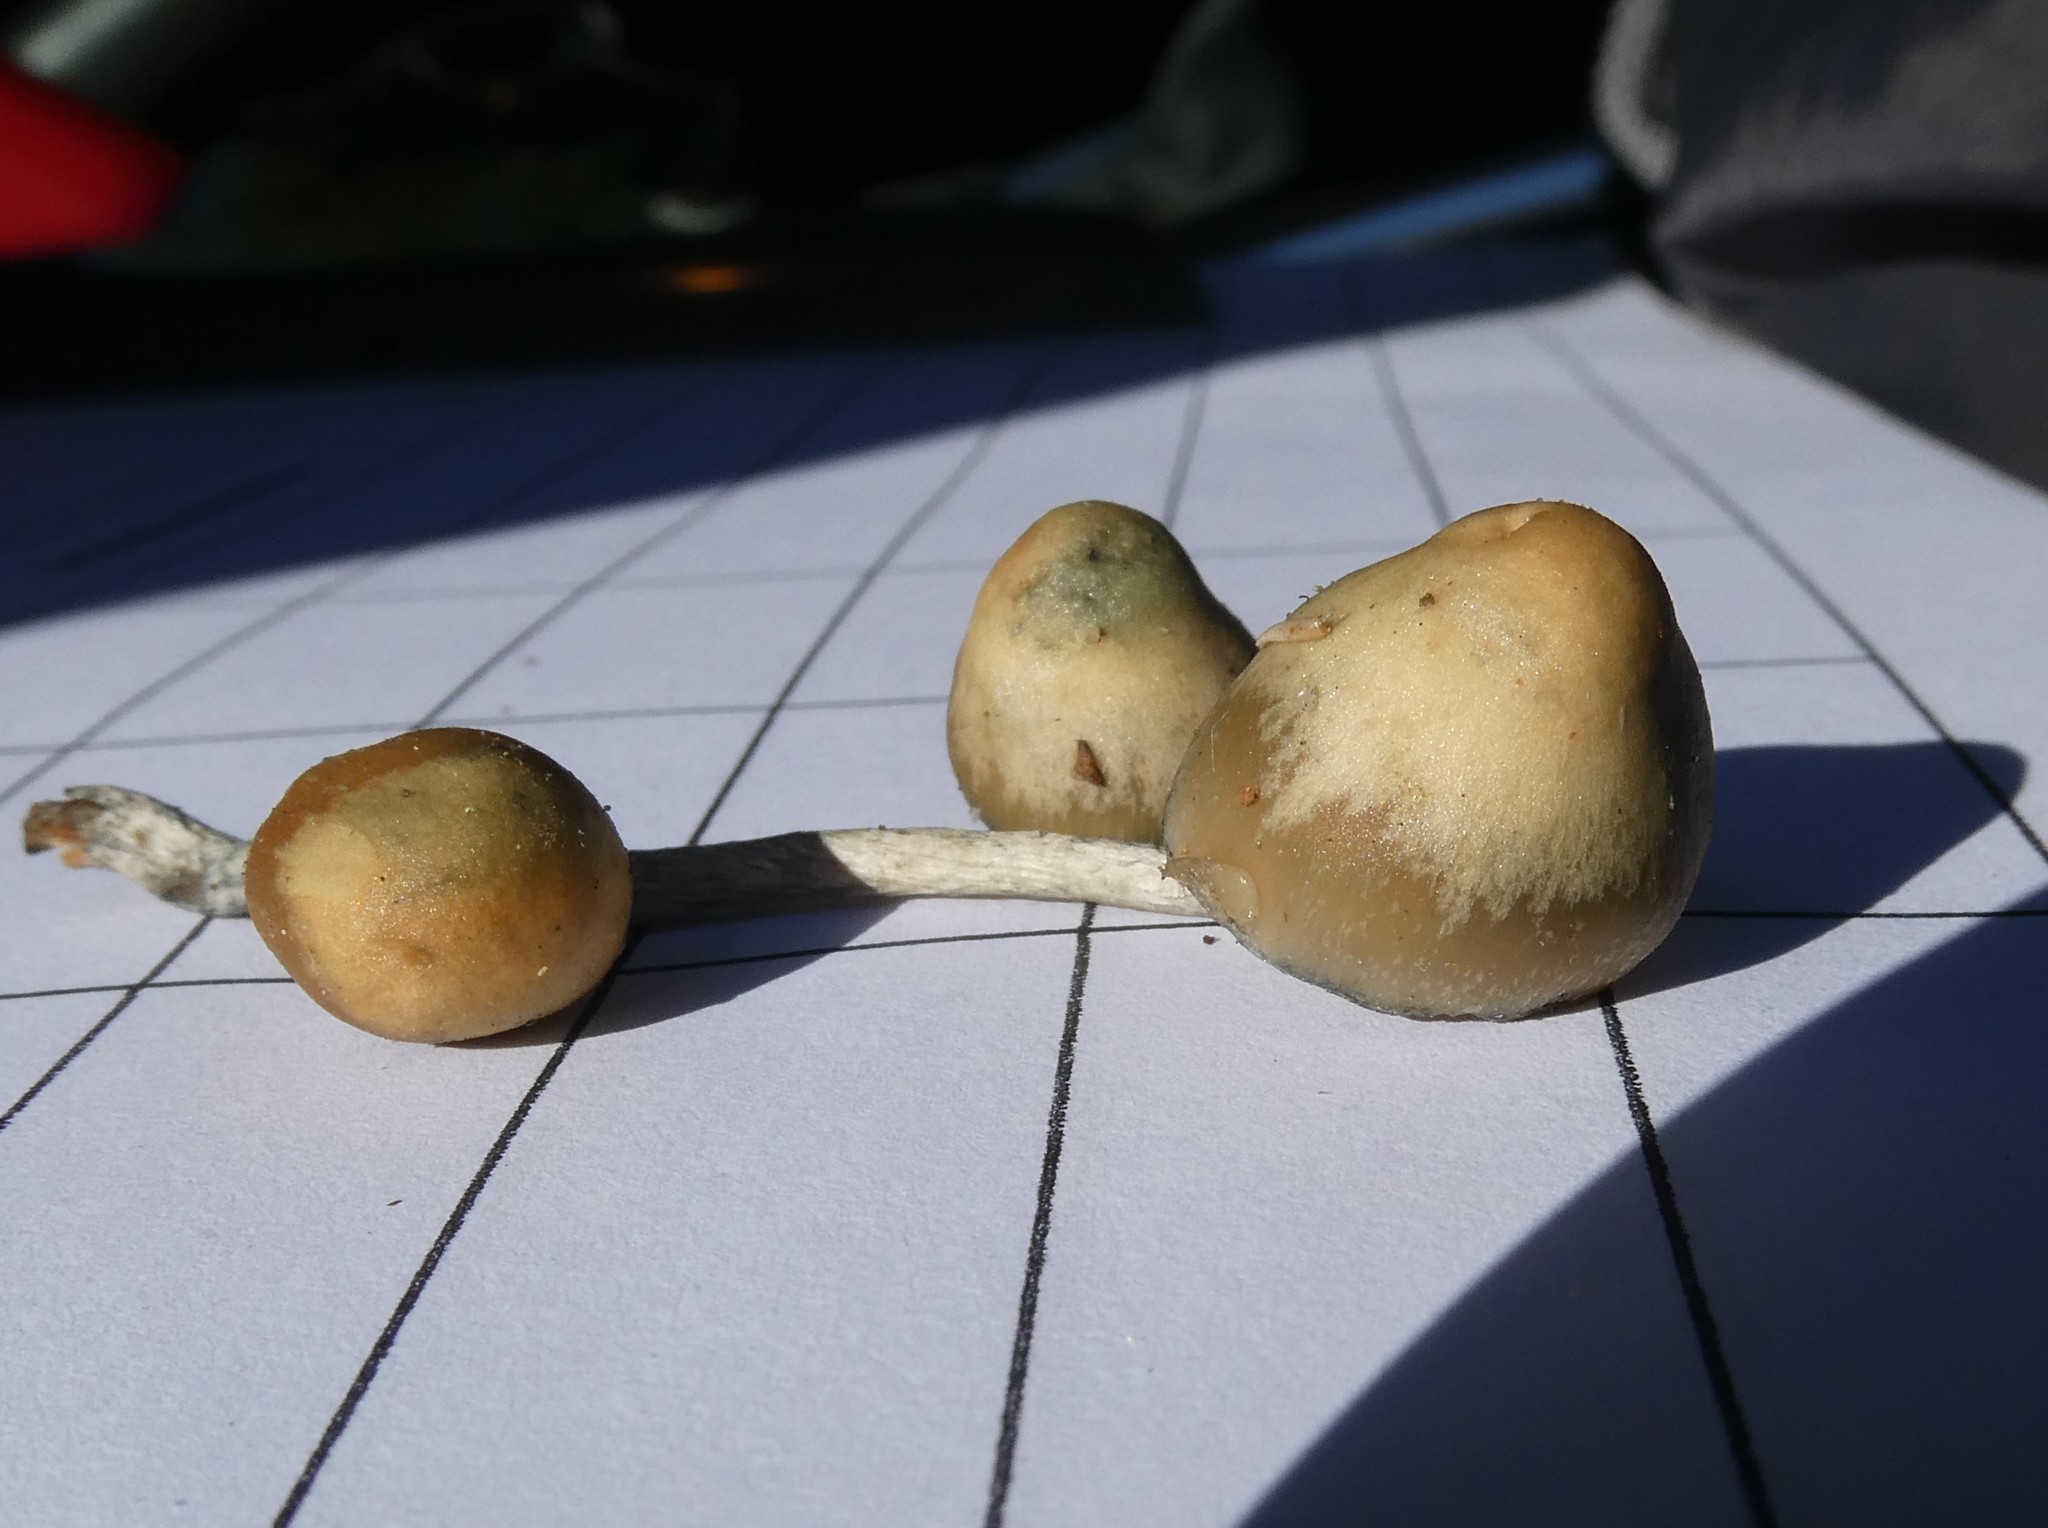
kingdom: Fungi
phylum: Basidiomycota
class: Agaricomycetes
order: Agaricales
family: Hymenogastraceae
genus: Psilocybe
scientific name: Psilocybe caerulipes
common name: Blue-foot
